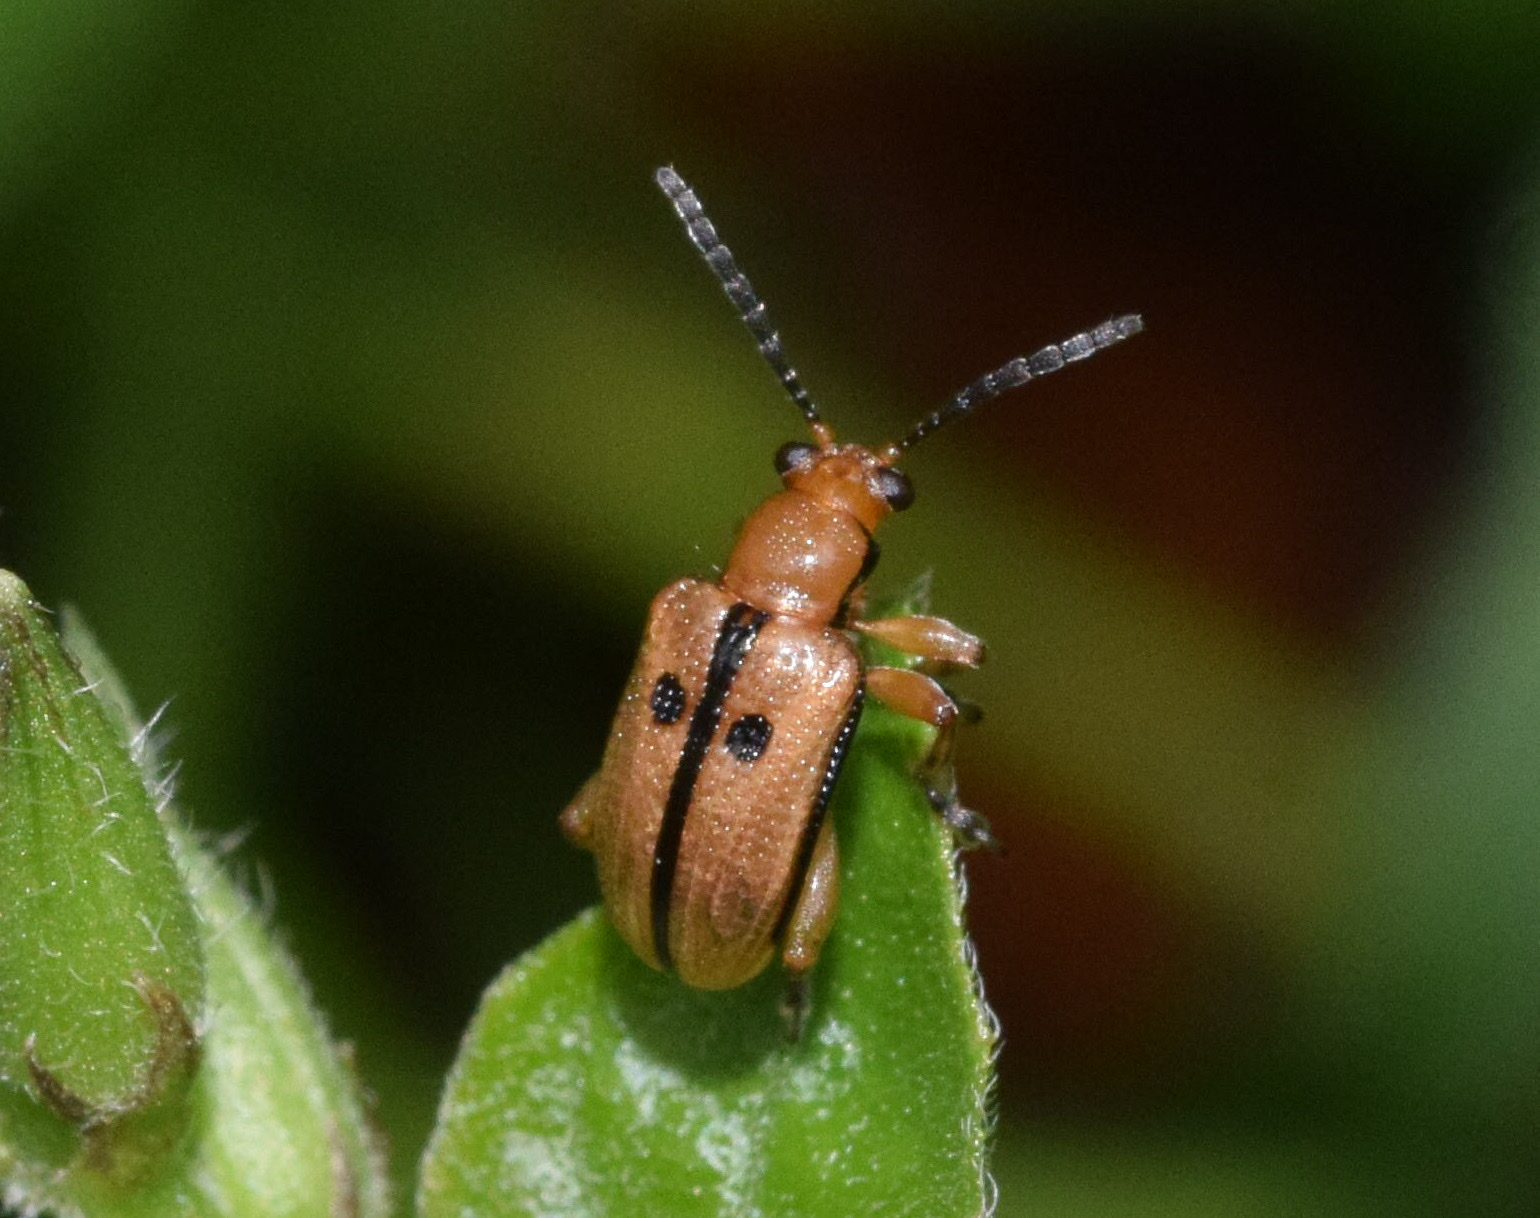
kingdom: Animalia
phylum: Arthropoda
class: Insecta
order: Coleoptera
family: Chrysomelidae
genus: Lema
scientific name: Lema
